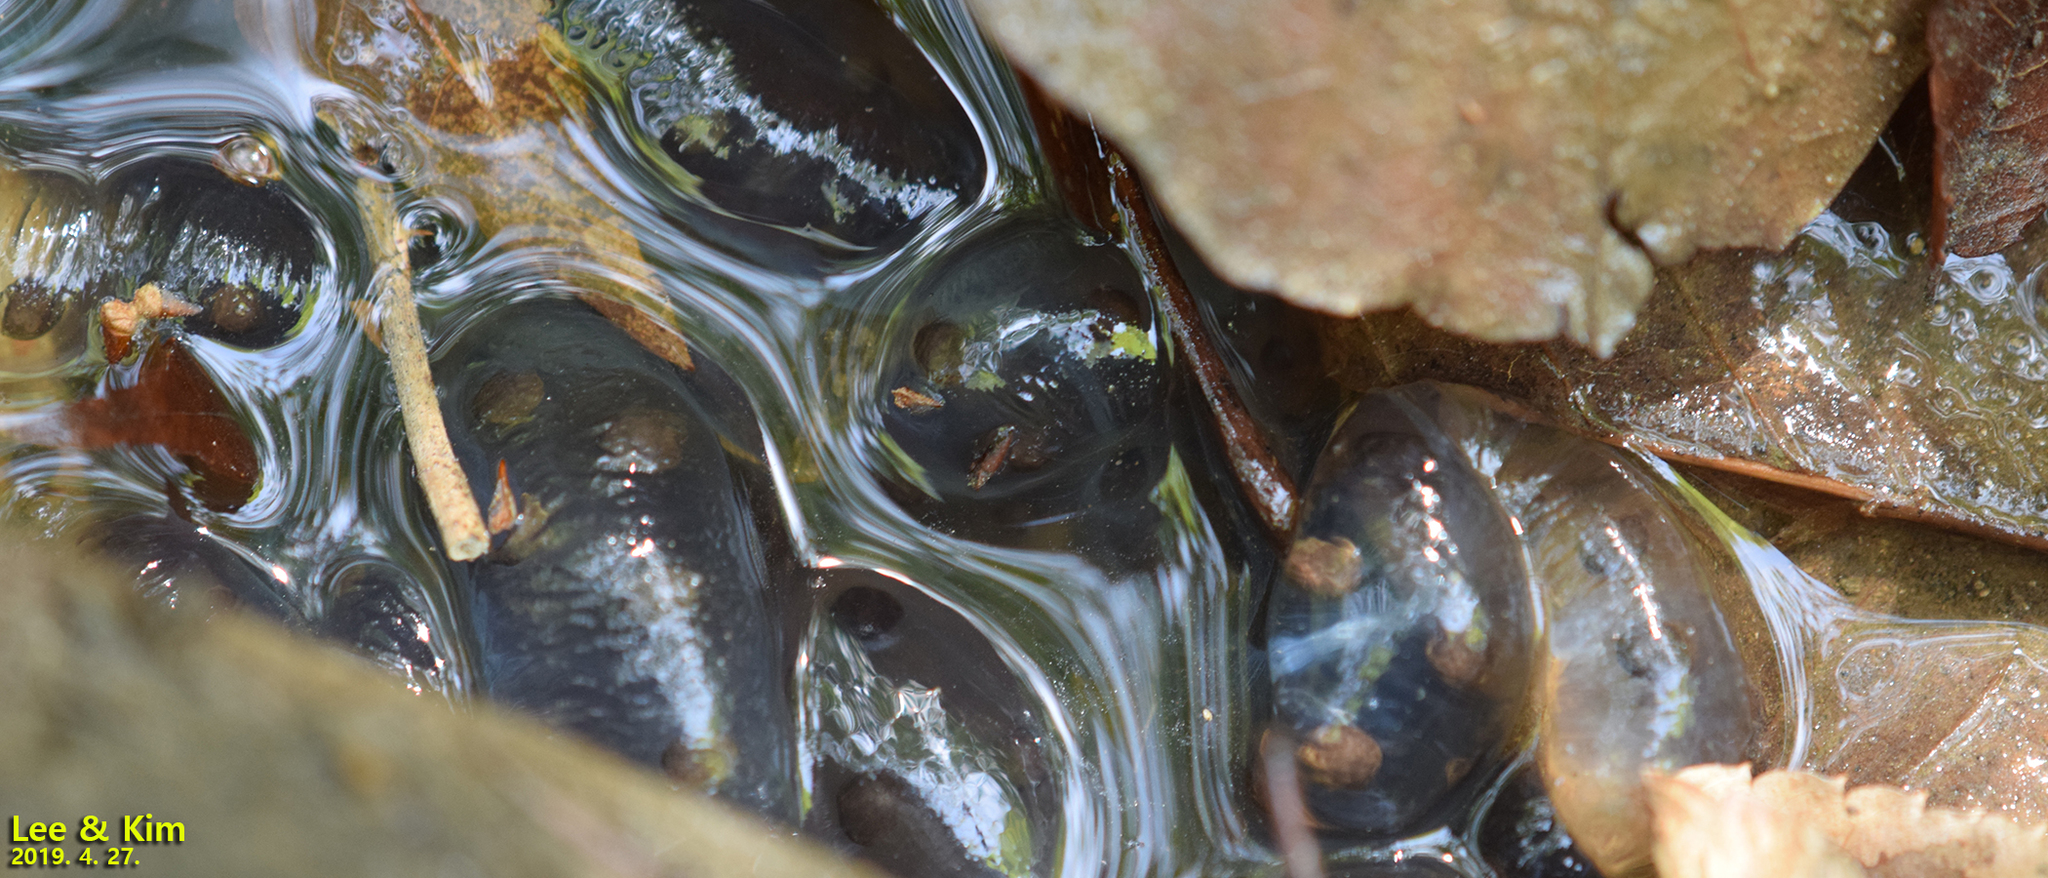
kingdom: Animalia
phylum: Chordata
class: Amphibia
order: Caudata
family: Hynobiidae
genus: Hynobius
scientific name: Hynobius leechii
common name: Gensan salamander
